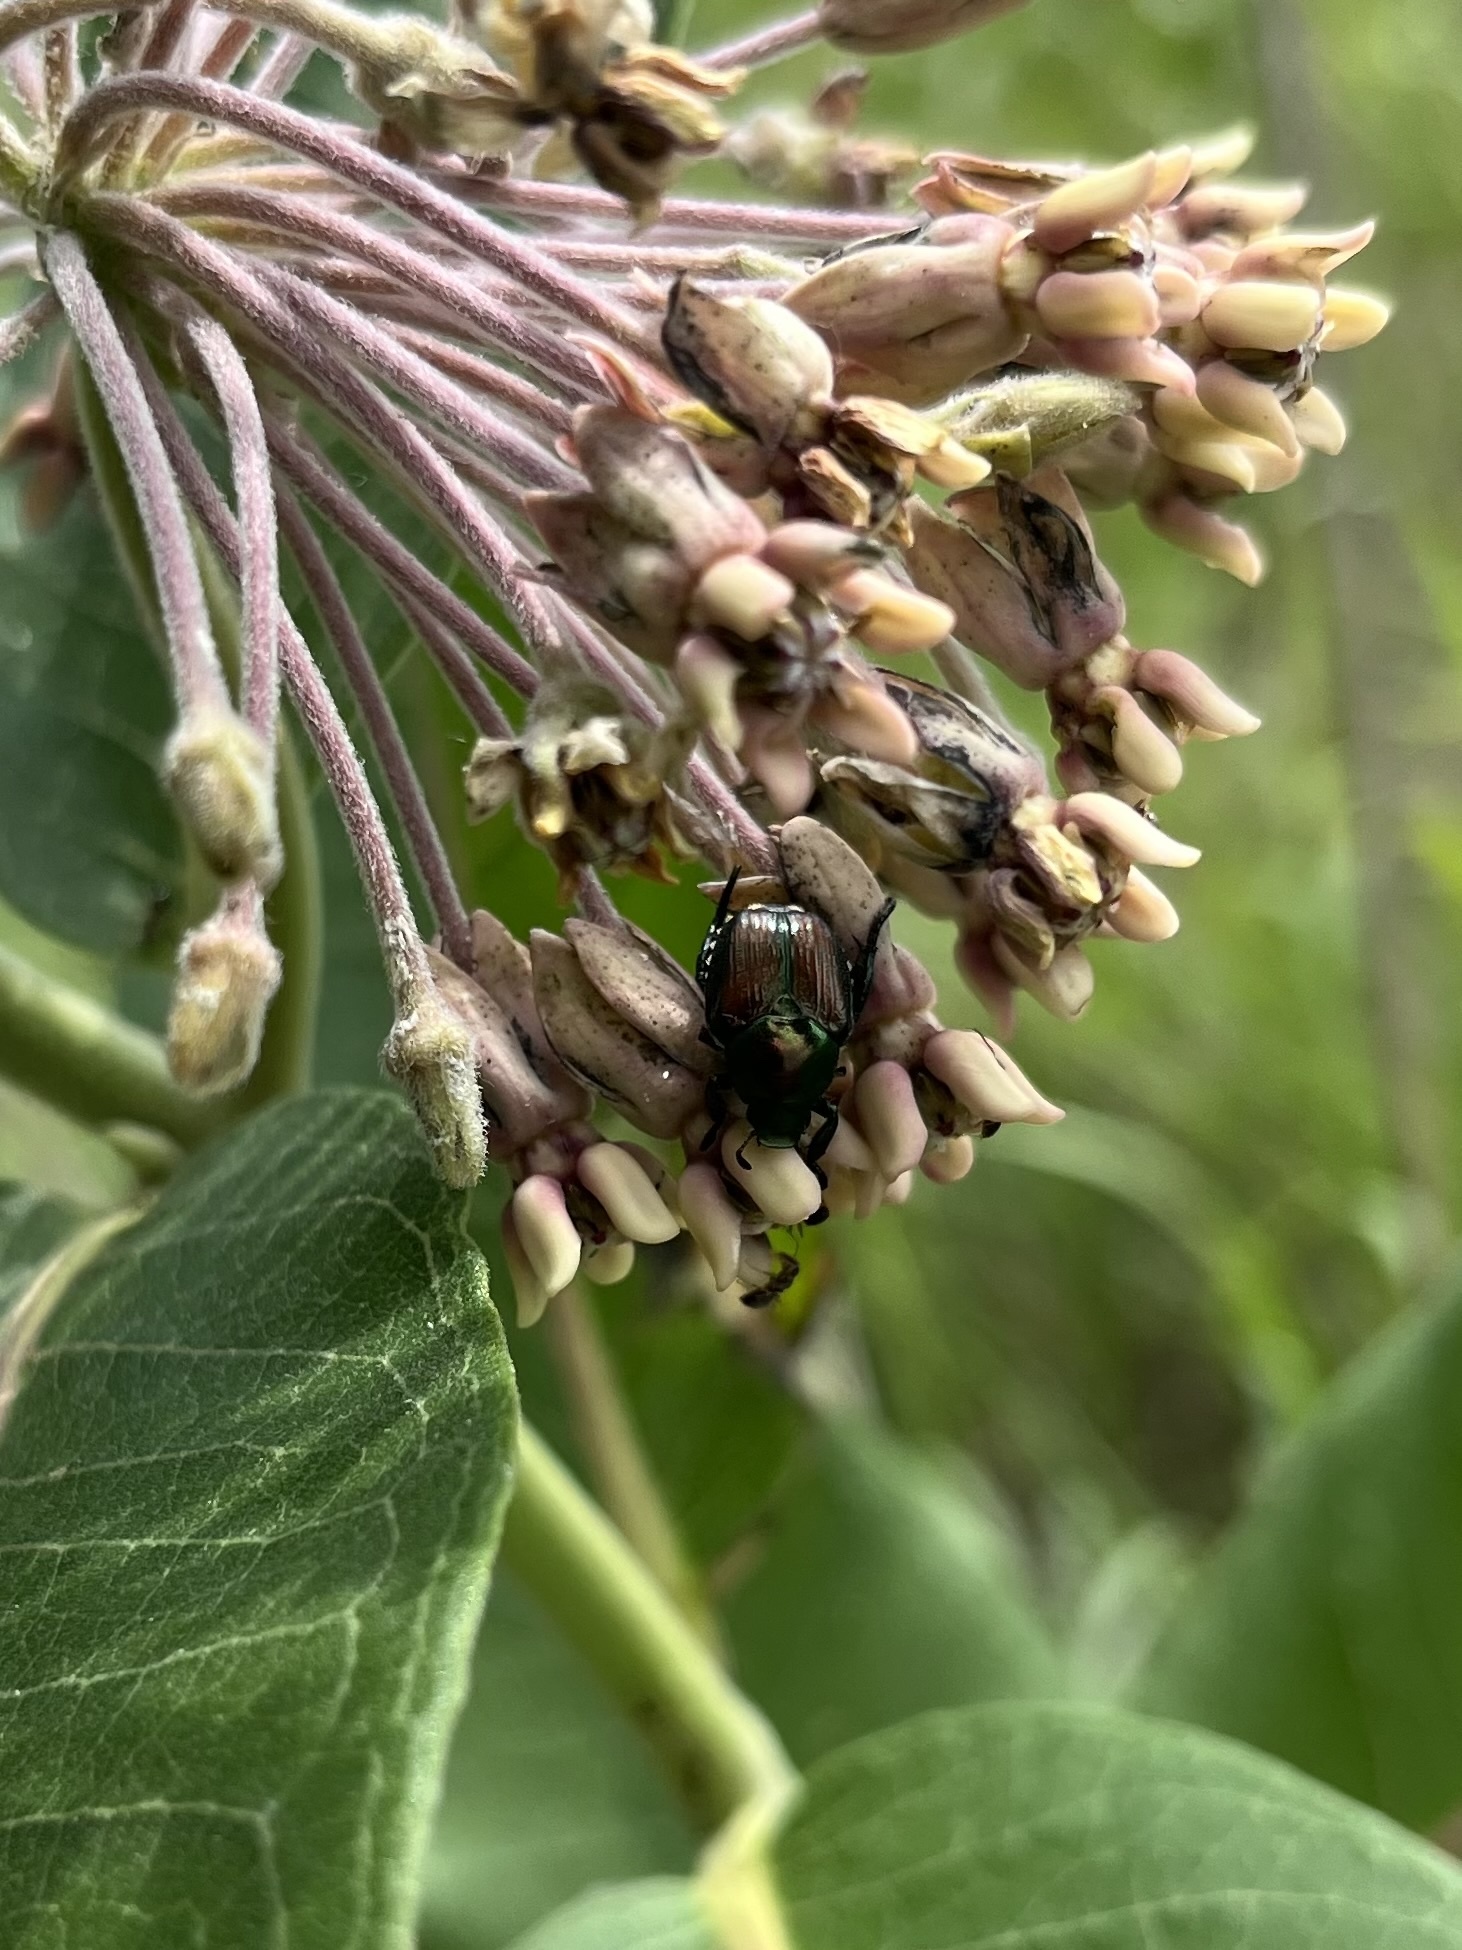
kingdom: Animalia
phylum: Arthropoda
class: Insecta
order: Coleoptera
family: Scarabaeidae
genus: Popillia
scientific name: Popillia japonica
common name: Japanese beetle
